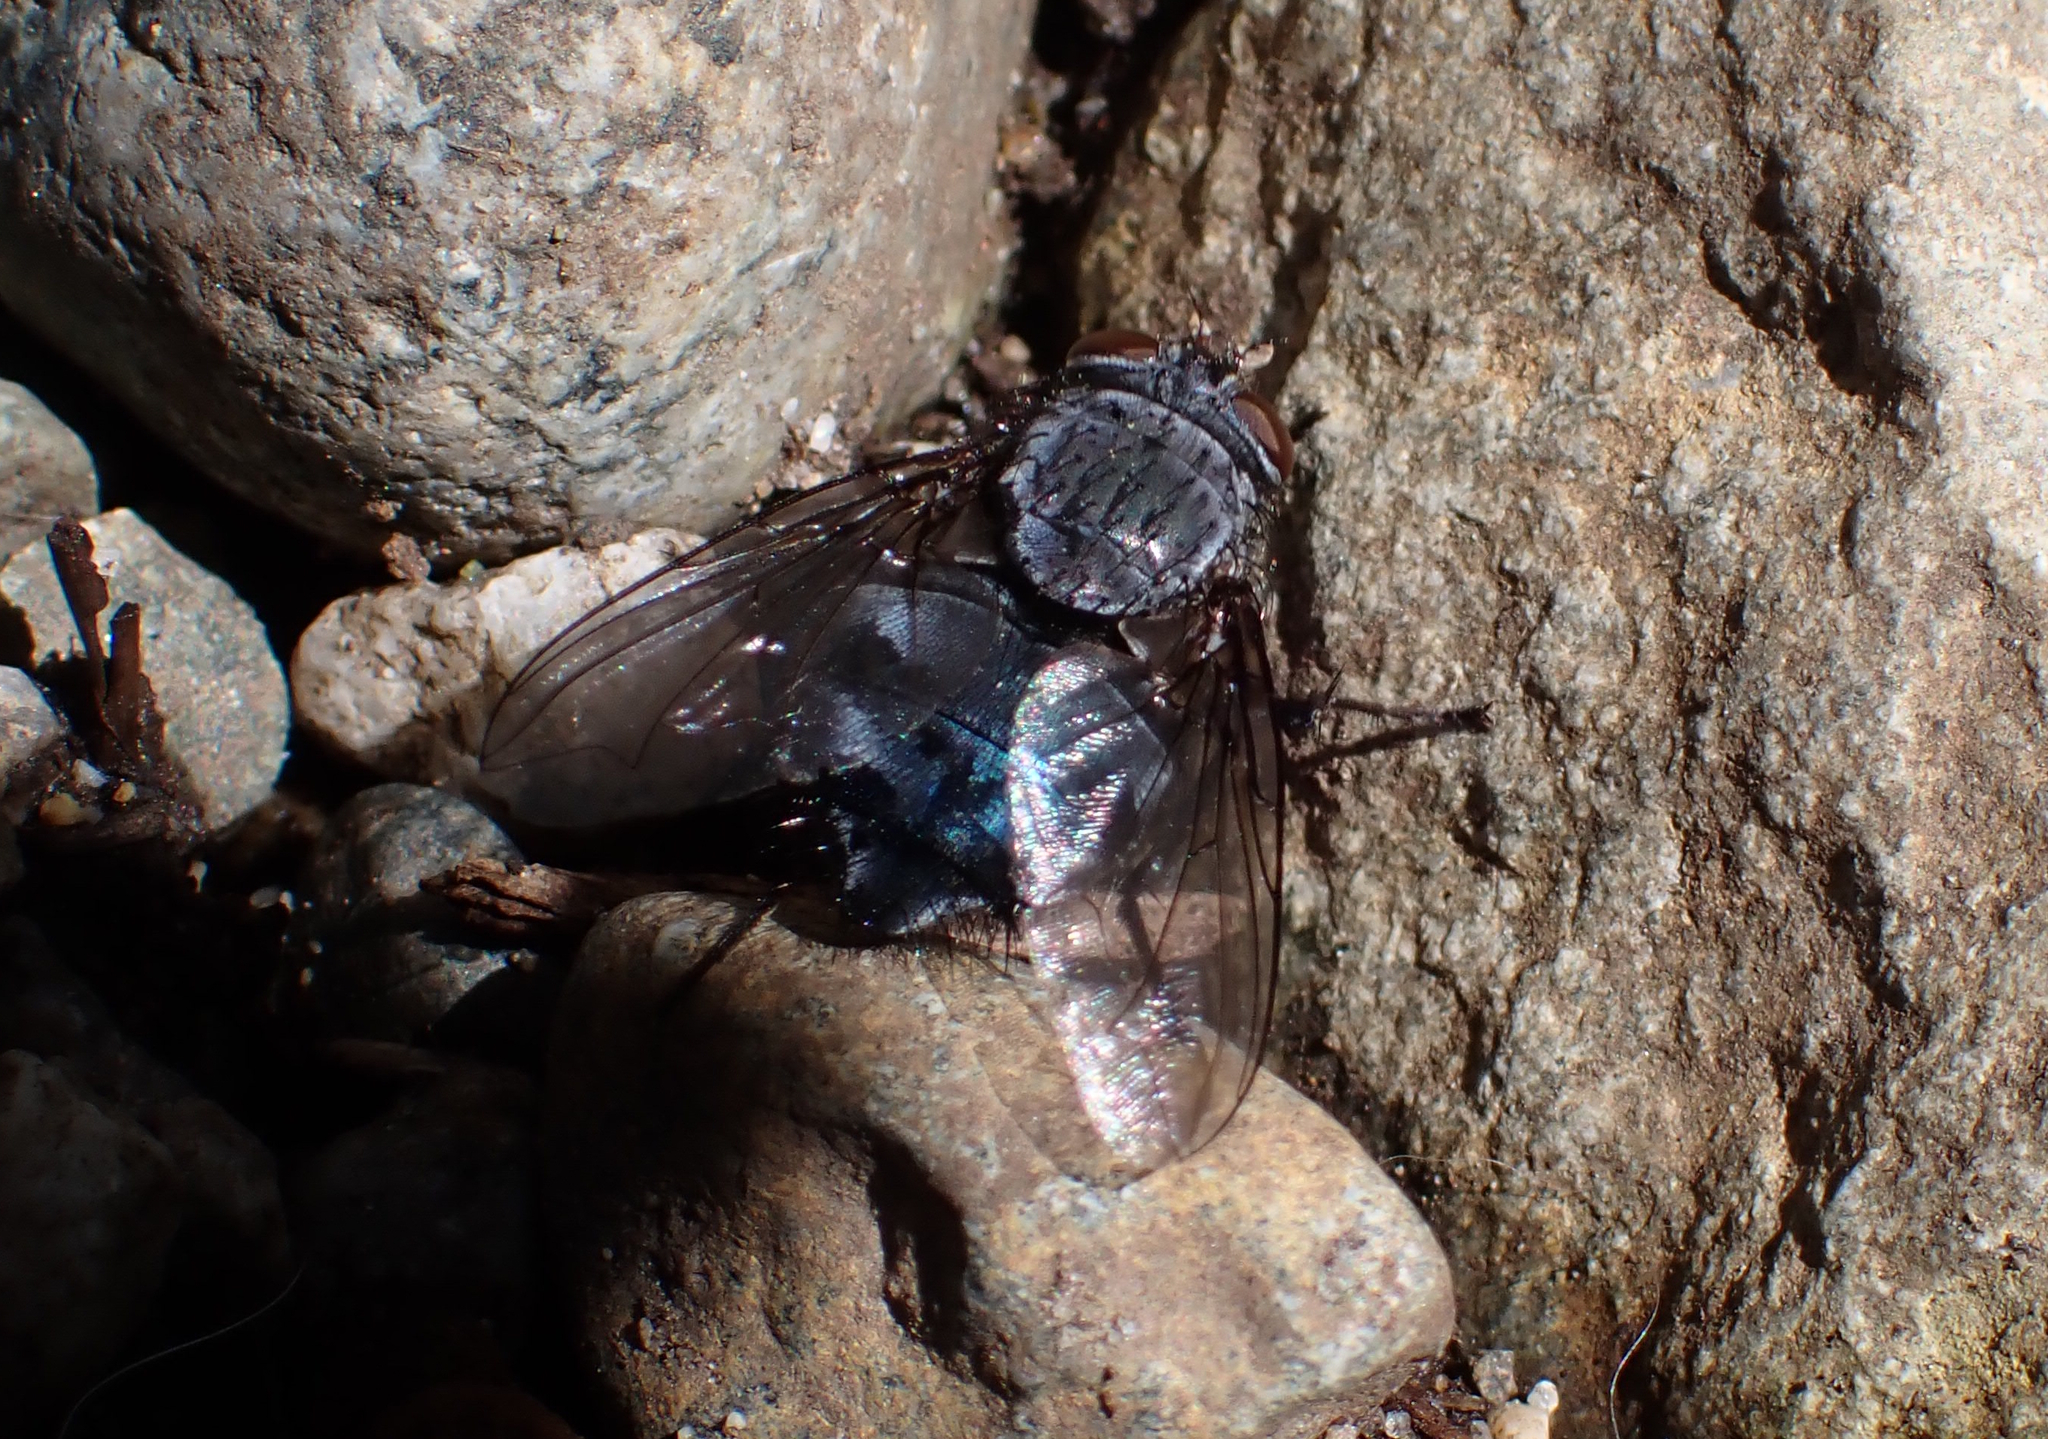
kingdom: Animalia
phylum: Arthropoda
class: Insecta
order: Diptera
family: Calliphoridae
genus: Calliphora
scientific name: Calliphora
